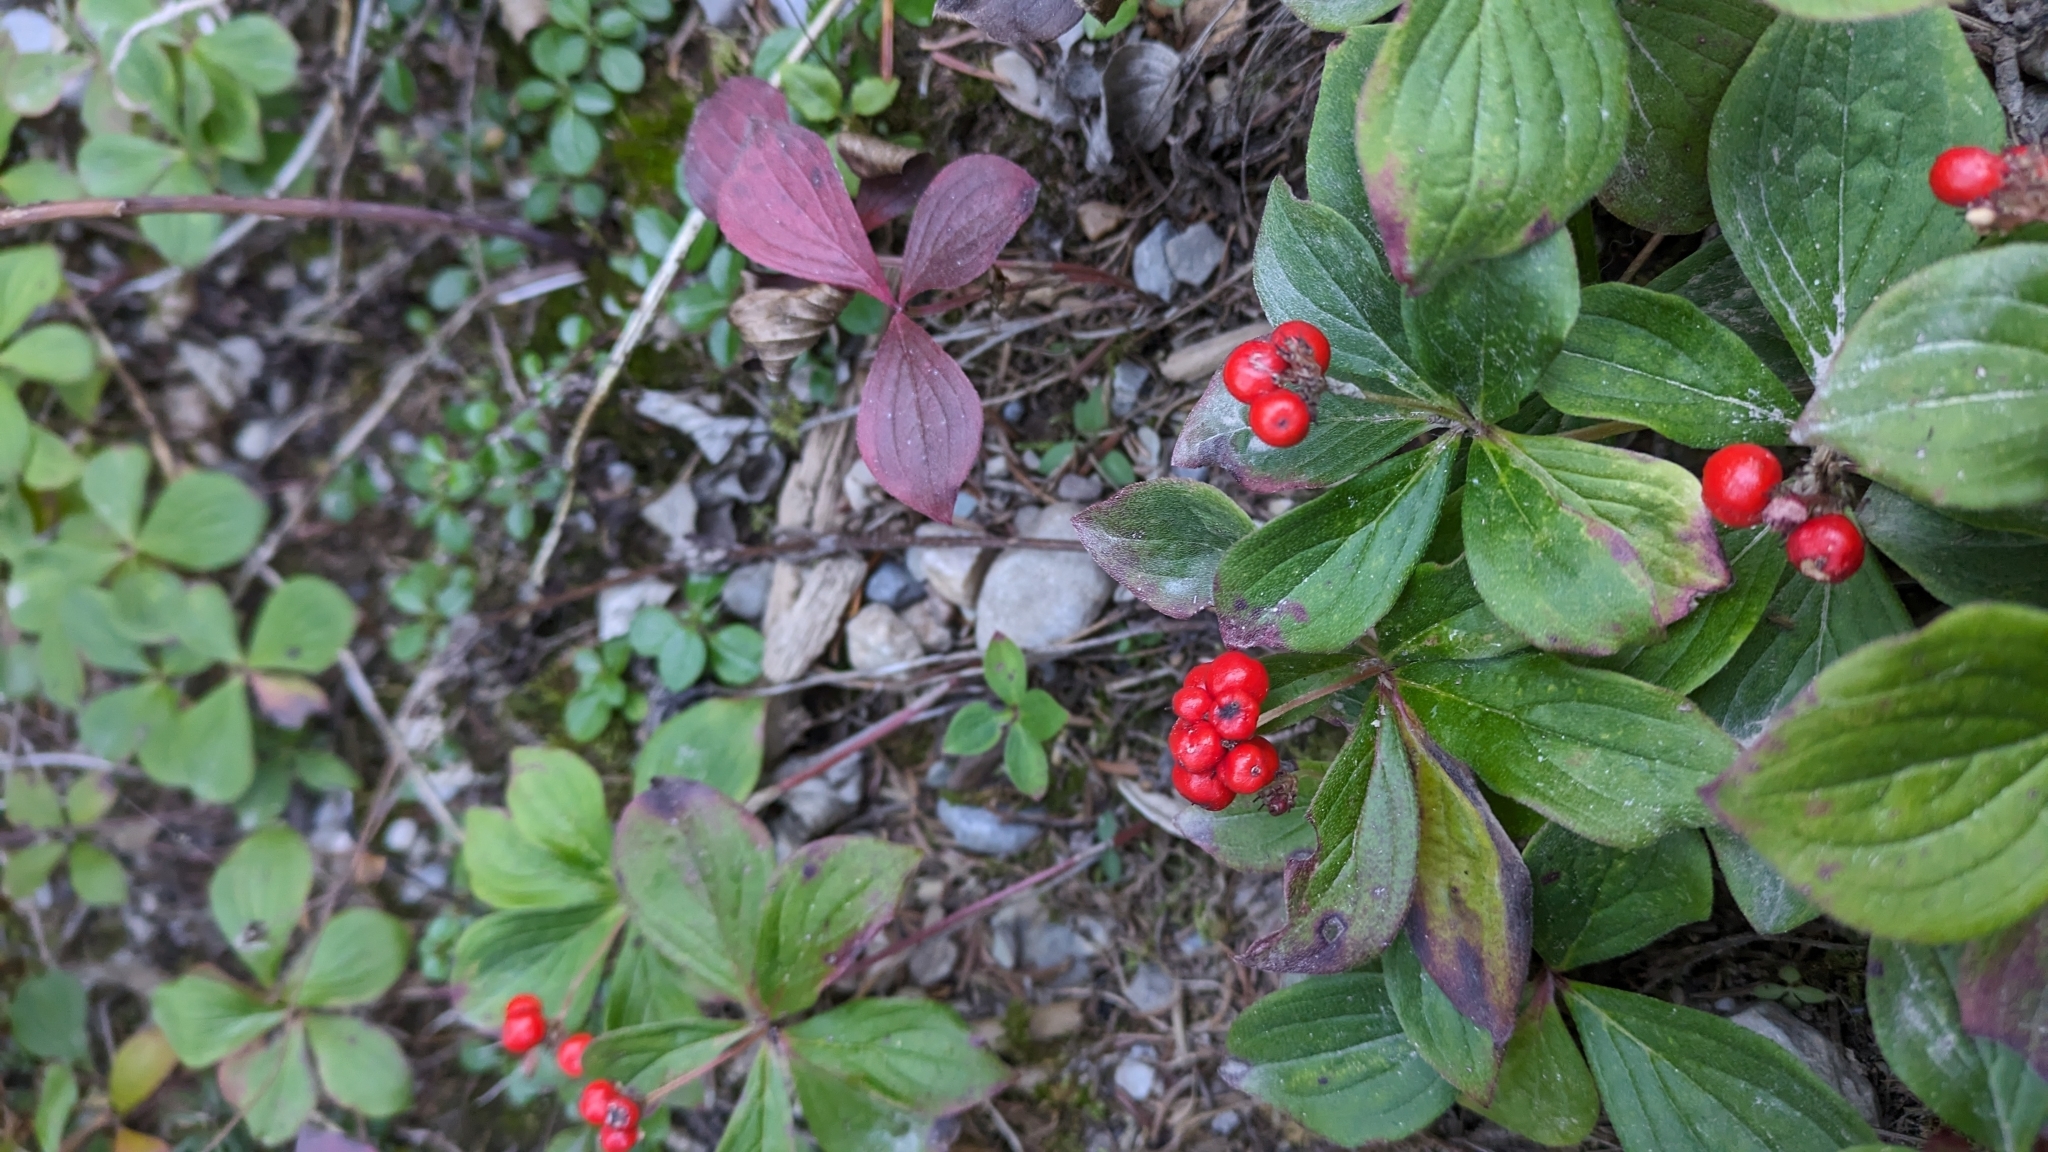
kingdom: Plantae
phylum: Tracheophyta
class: Magnoliopsida
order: Cornales
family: Cornaceae
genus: Cornus
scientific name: Cornus canadensis
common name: Creeping dogwood
